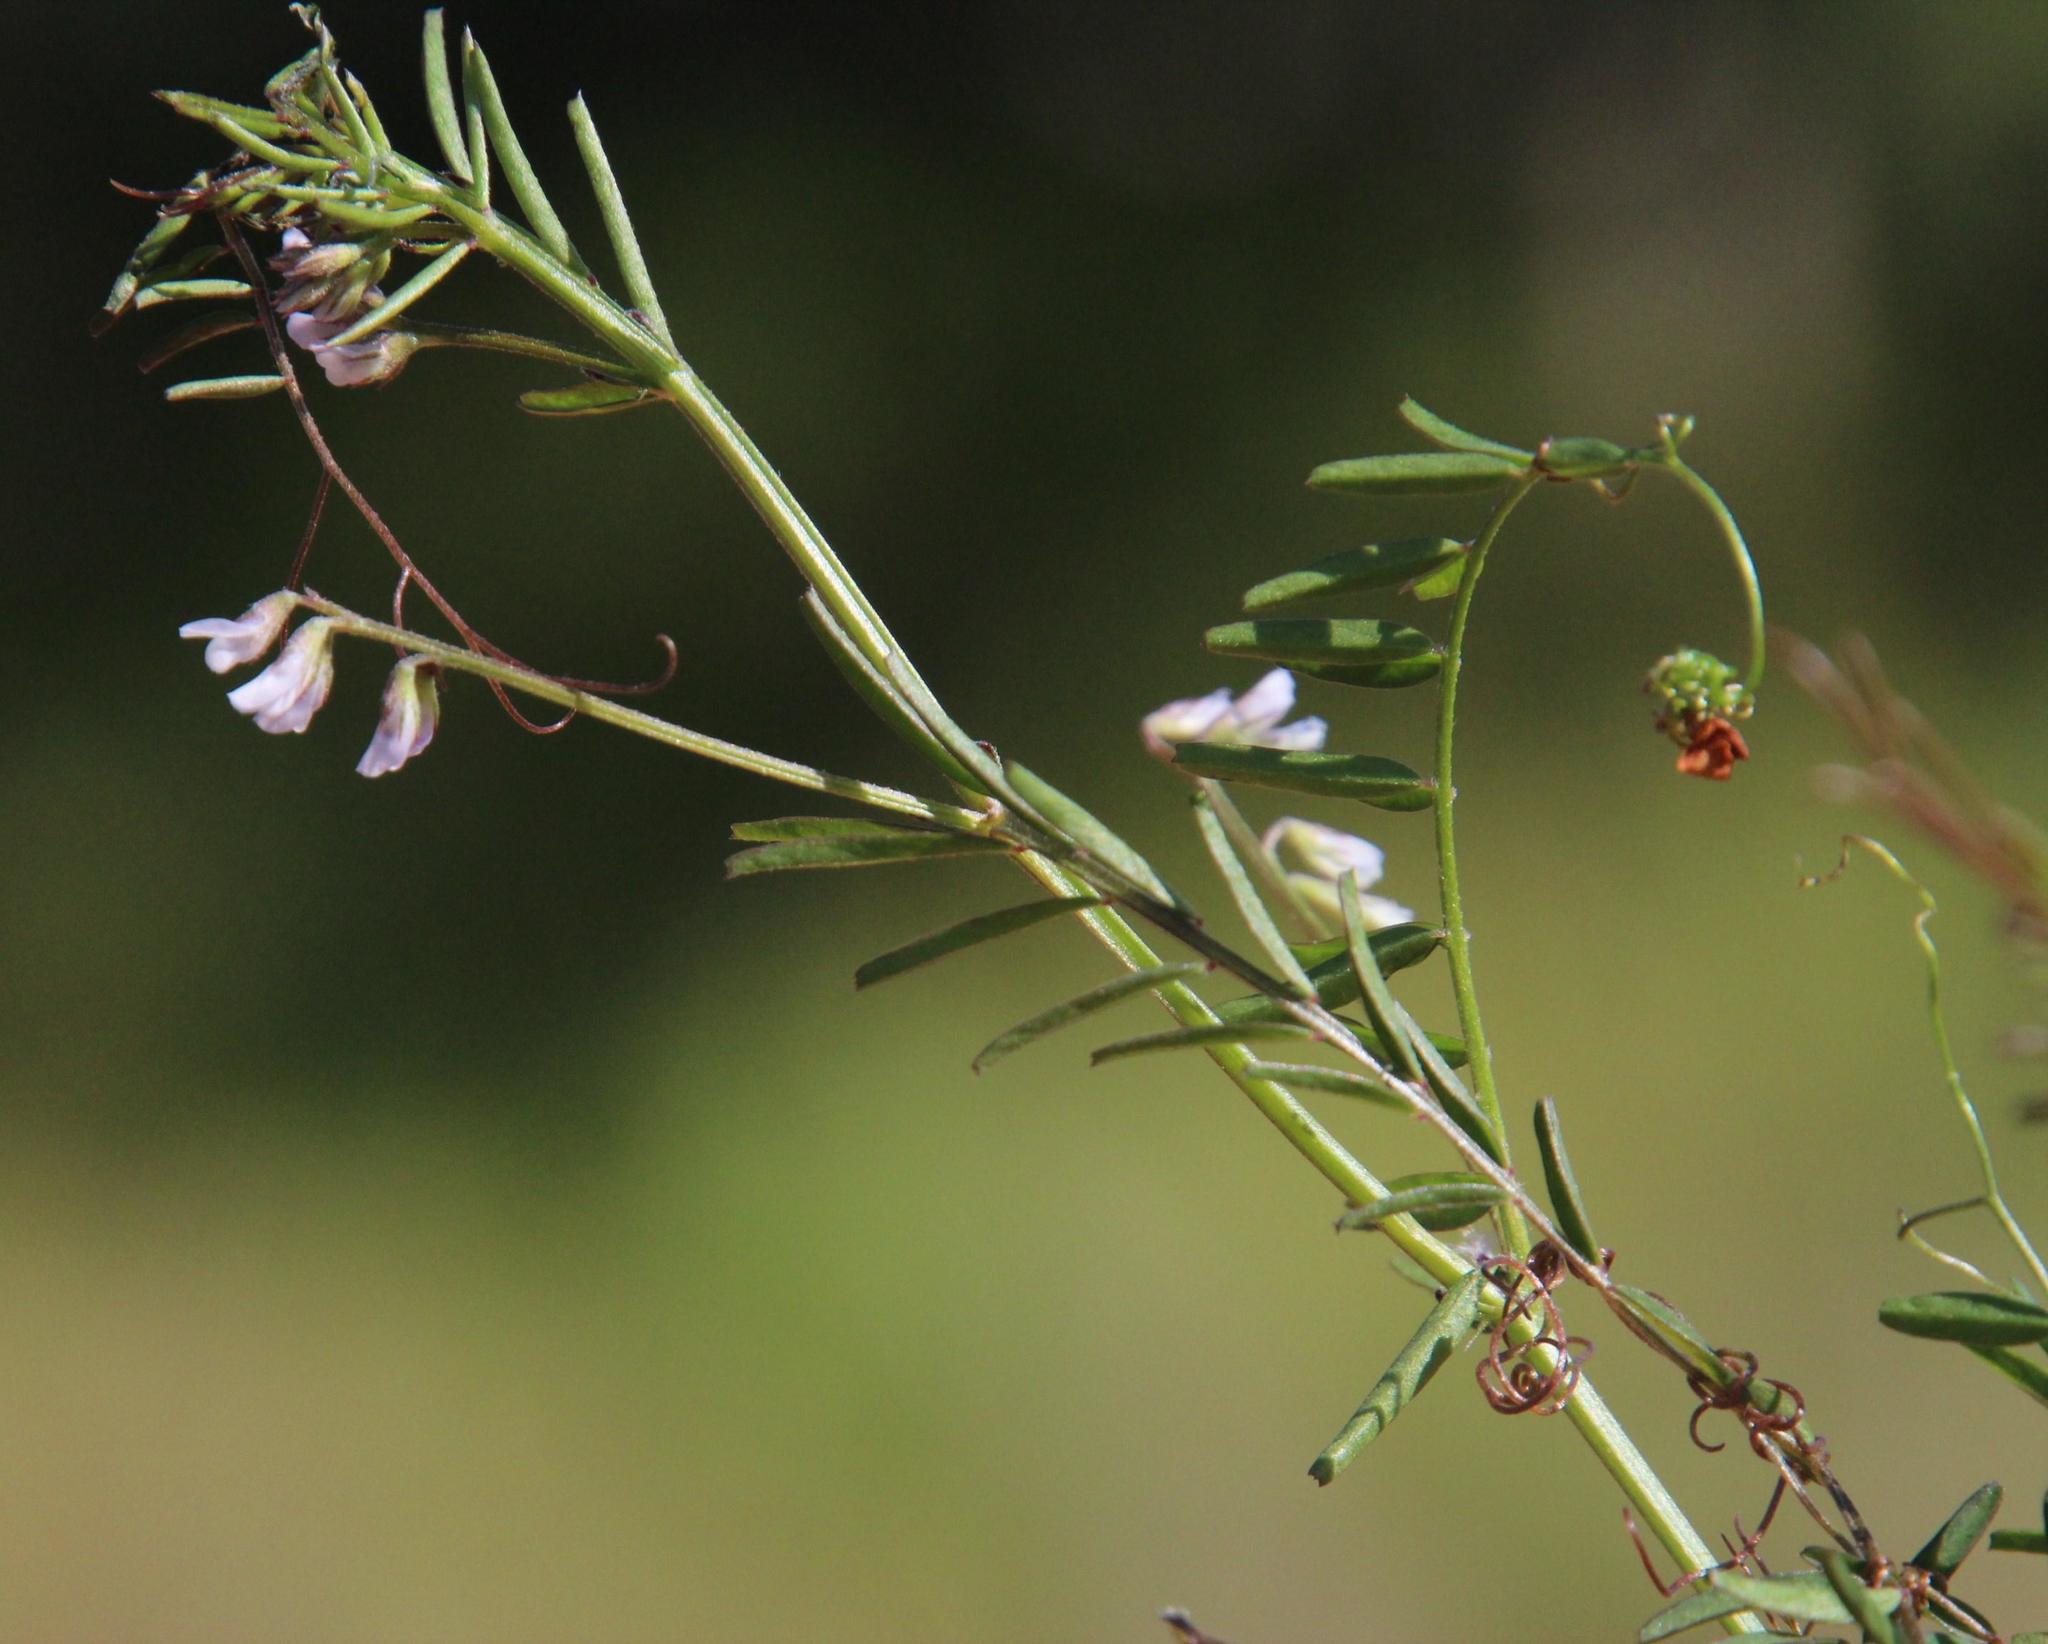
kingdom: Plantae
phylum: Tracheophyta
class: Magnoliopsida
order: Fabales
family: Fabaceae
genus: Vicia
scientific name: Vicia hirsuta
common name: Tiny vetch
